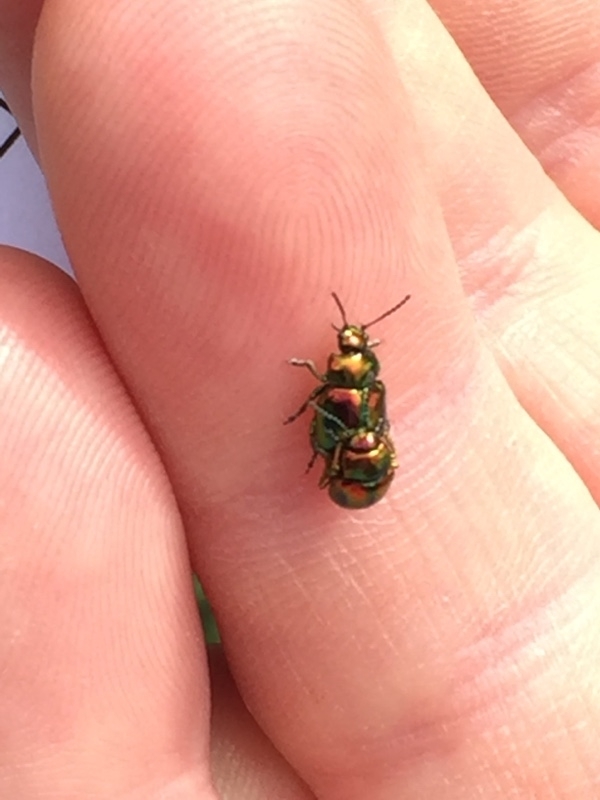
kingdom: Animalia
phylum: Arthropoda
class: Insecta
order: Coleoptera
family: Chrysomelidae
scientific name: Chrysomelidae
